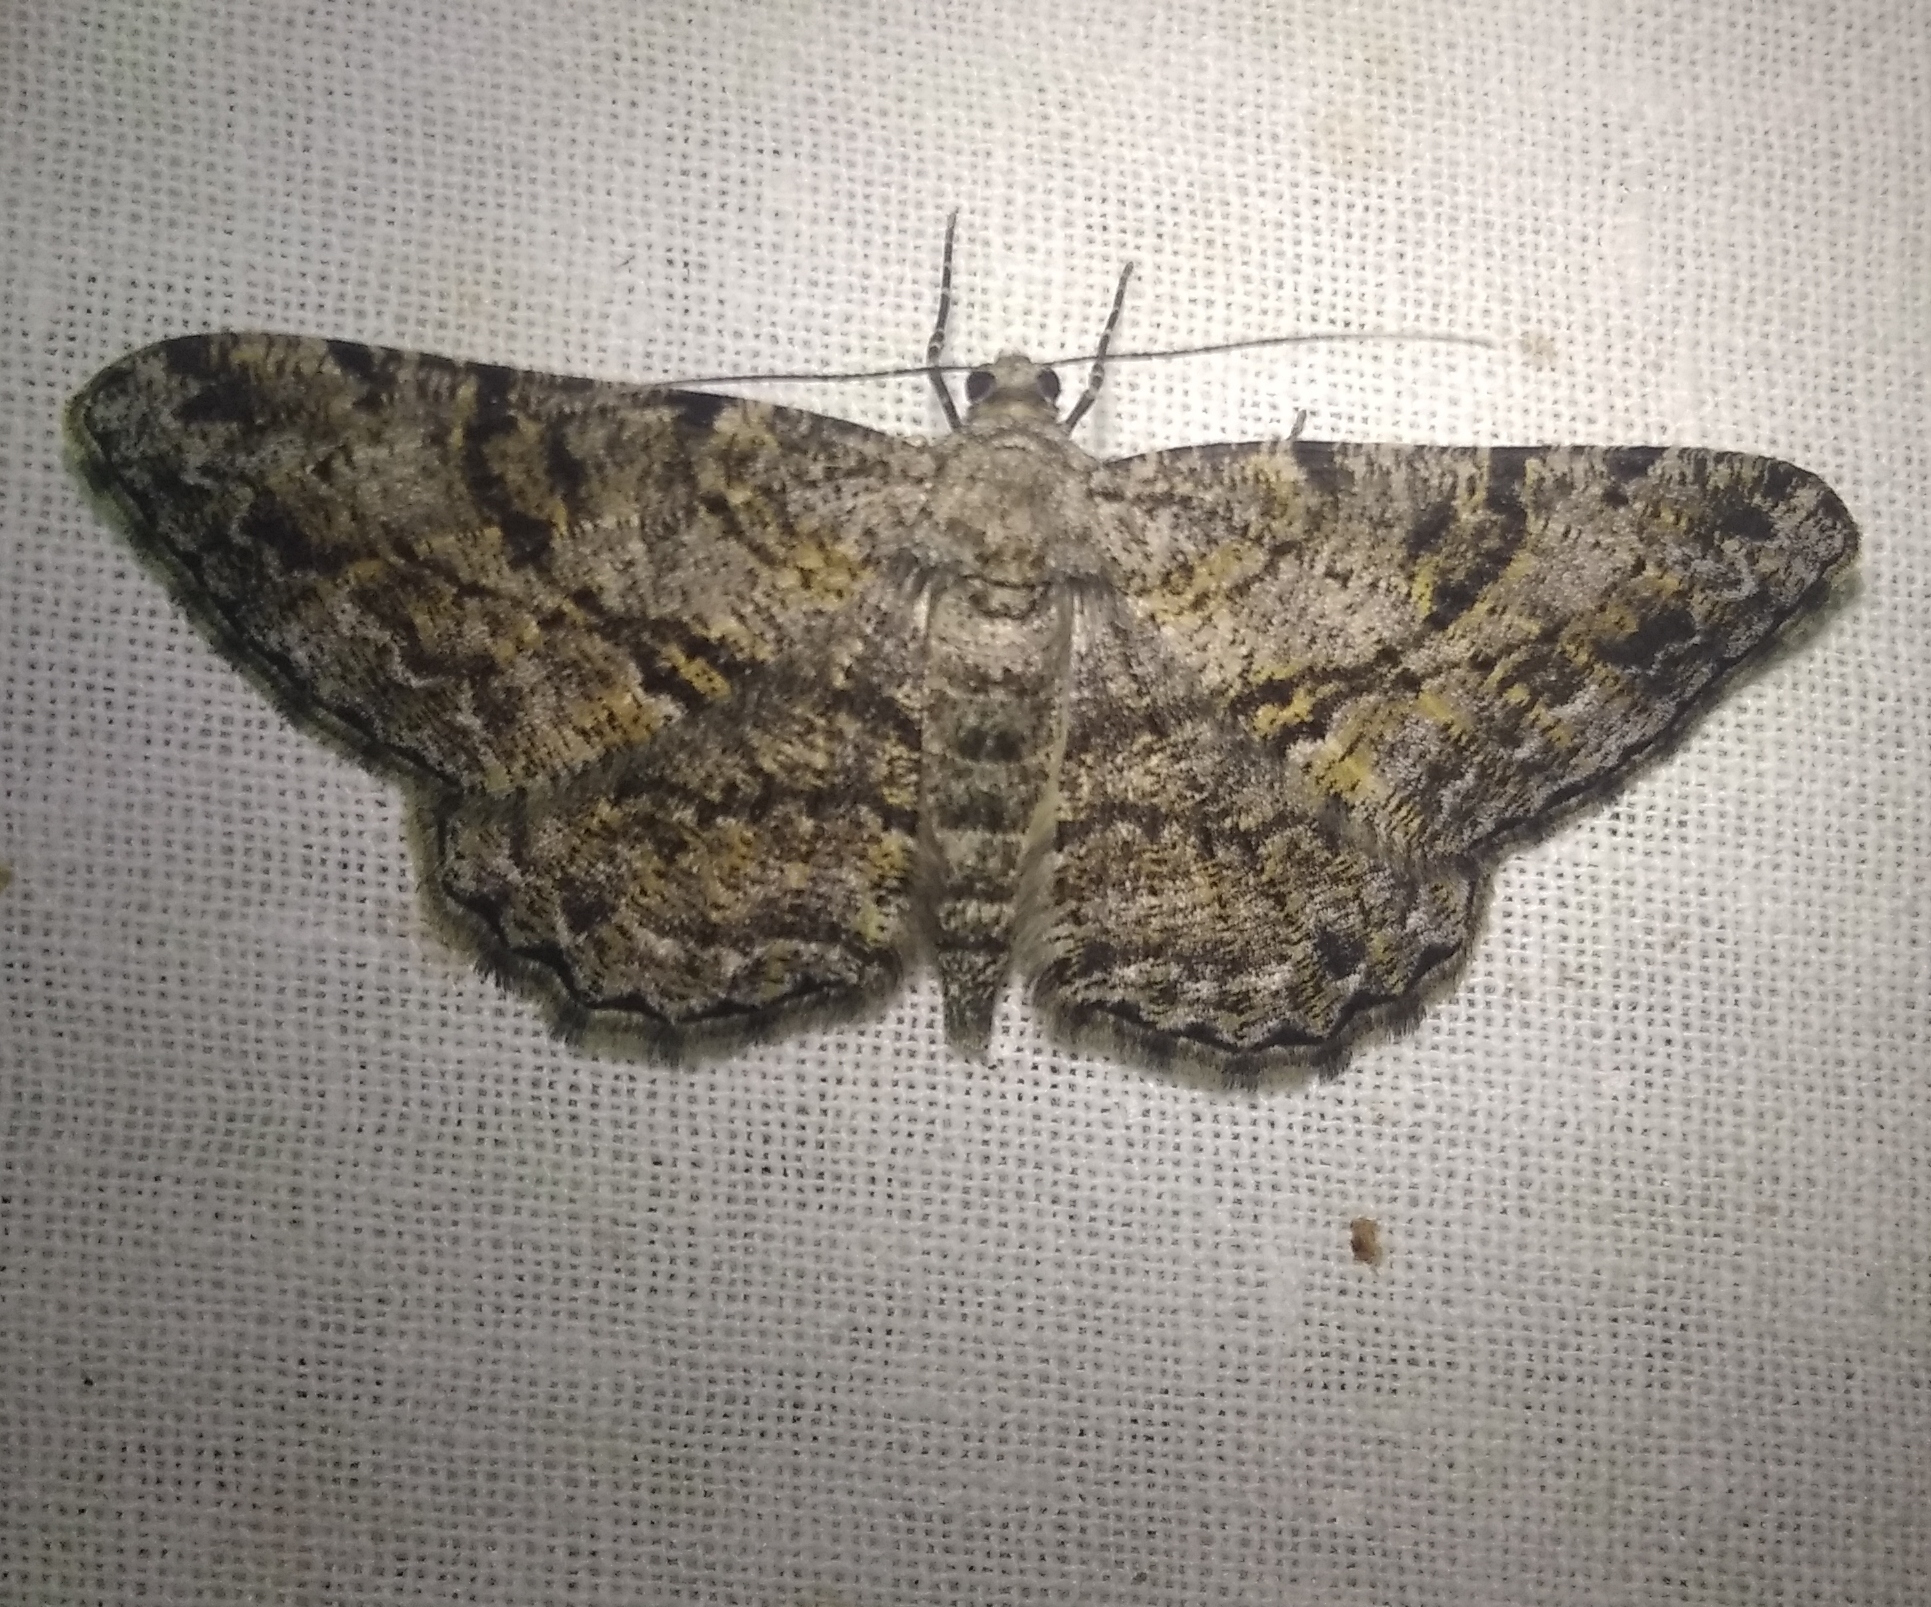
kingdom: Animalia
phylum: Arthropoda
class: Insecta
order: Lepidoptera
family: Geometridae
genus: Peribatodes
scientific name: Peribatodes rhomboidaria
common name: Willow beauty
